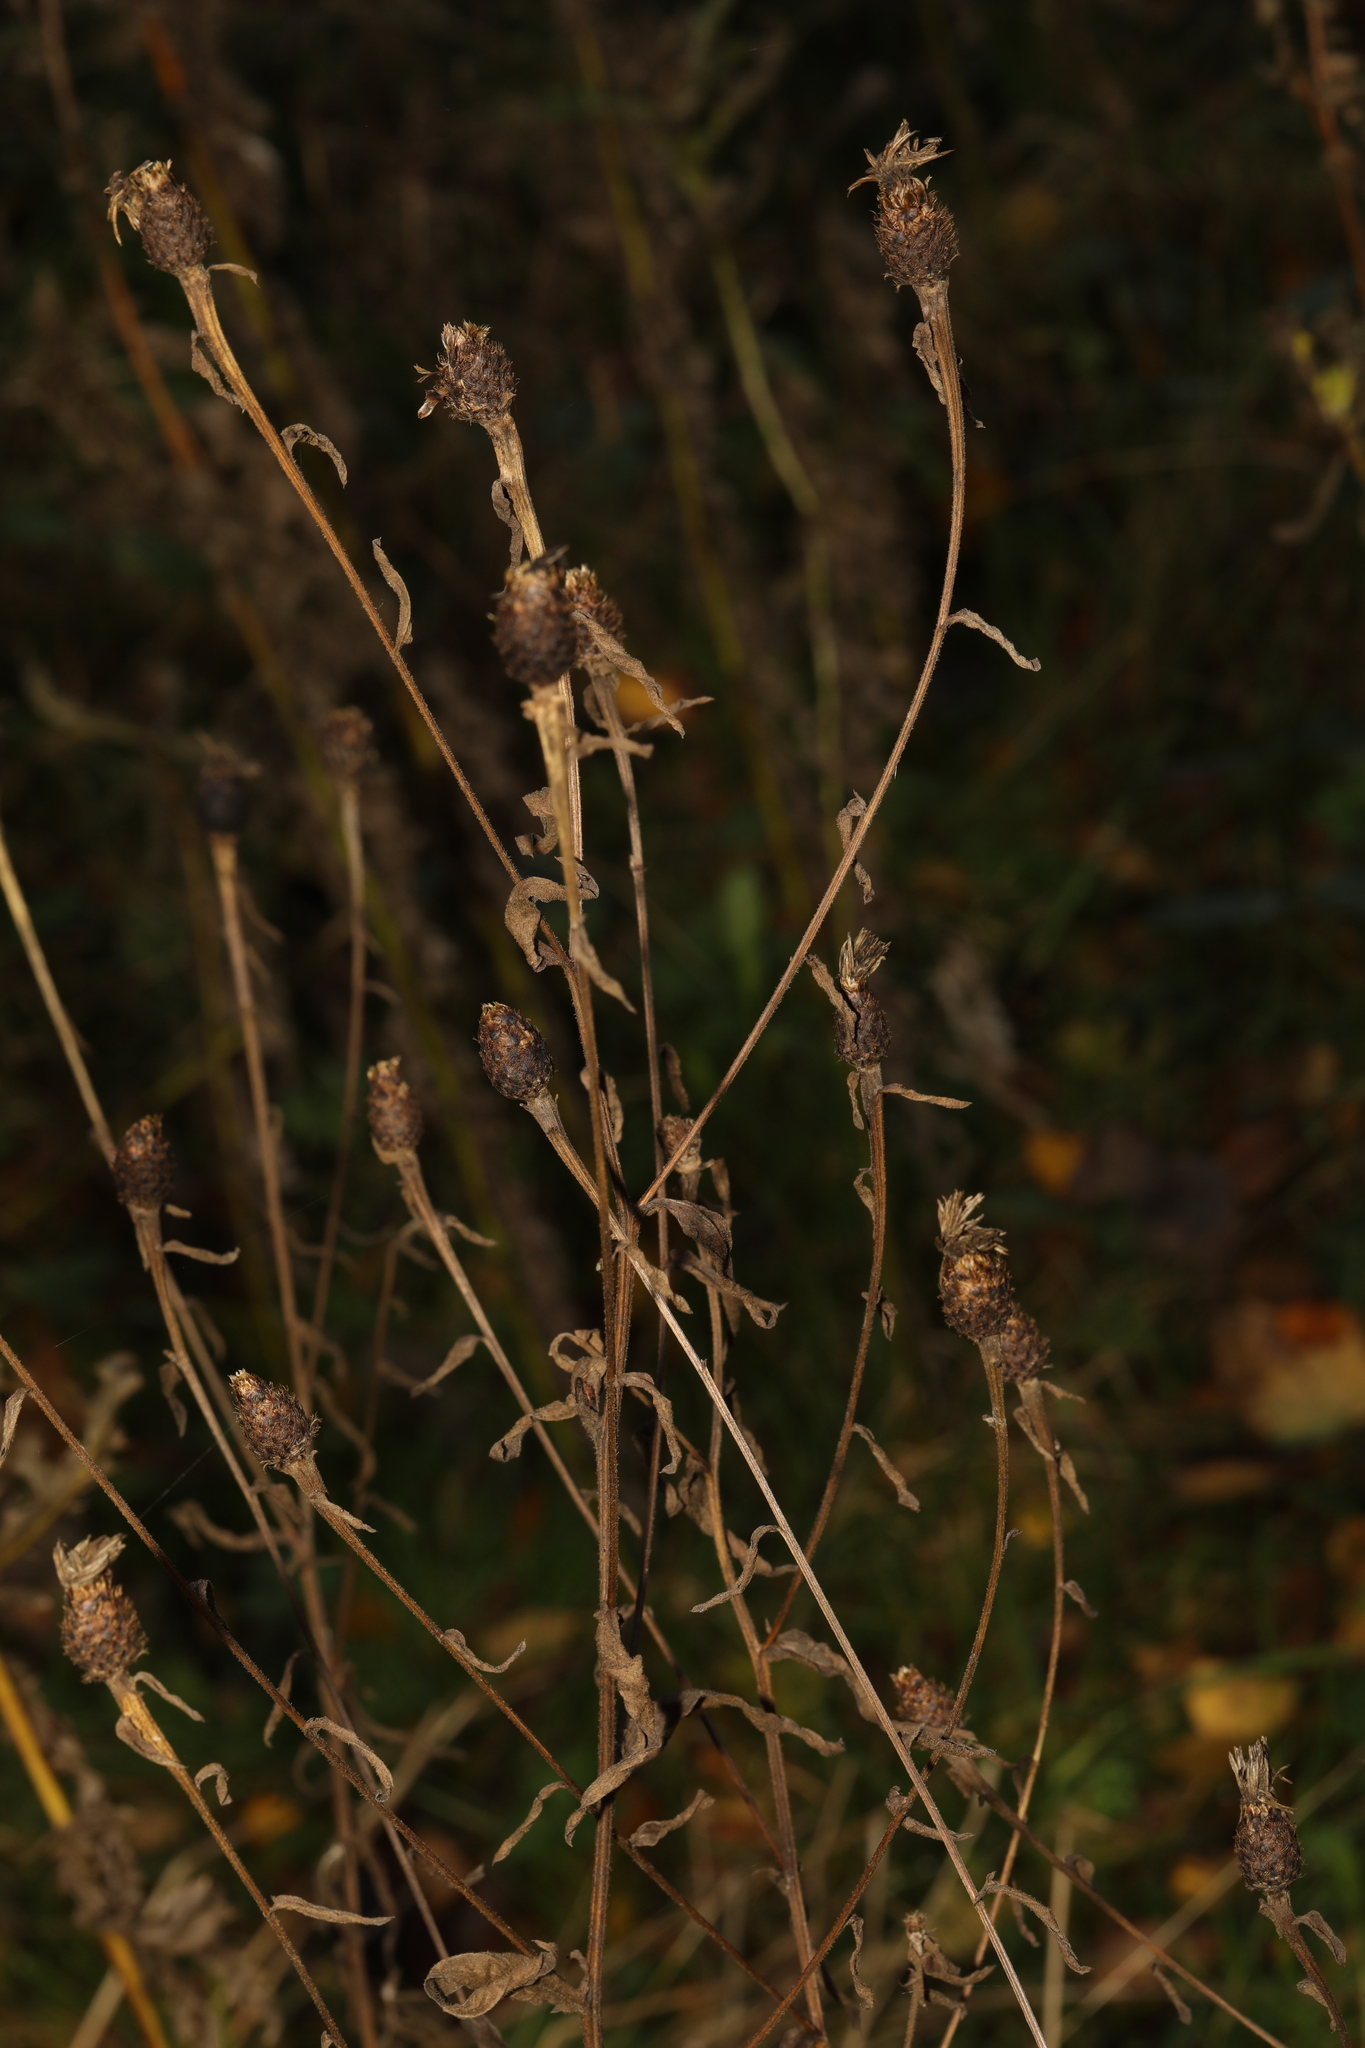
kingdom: Plantae
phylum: Tracheophyta
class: Magnoliopsida
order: Asterales
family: Asteraceae
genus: Centaurea
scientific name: Centaurea nigra
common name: Lesser knapweed
